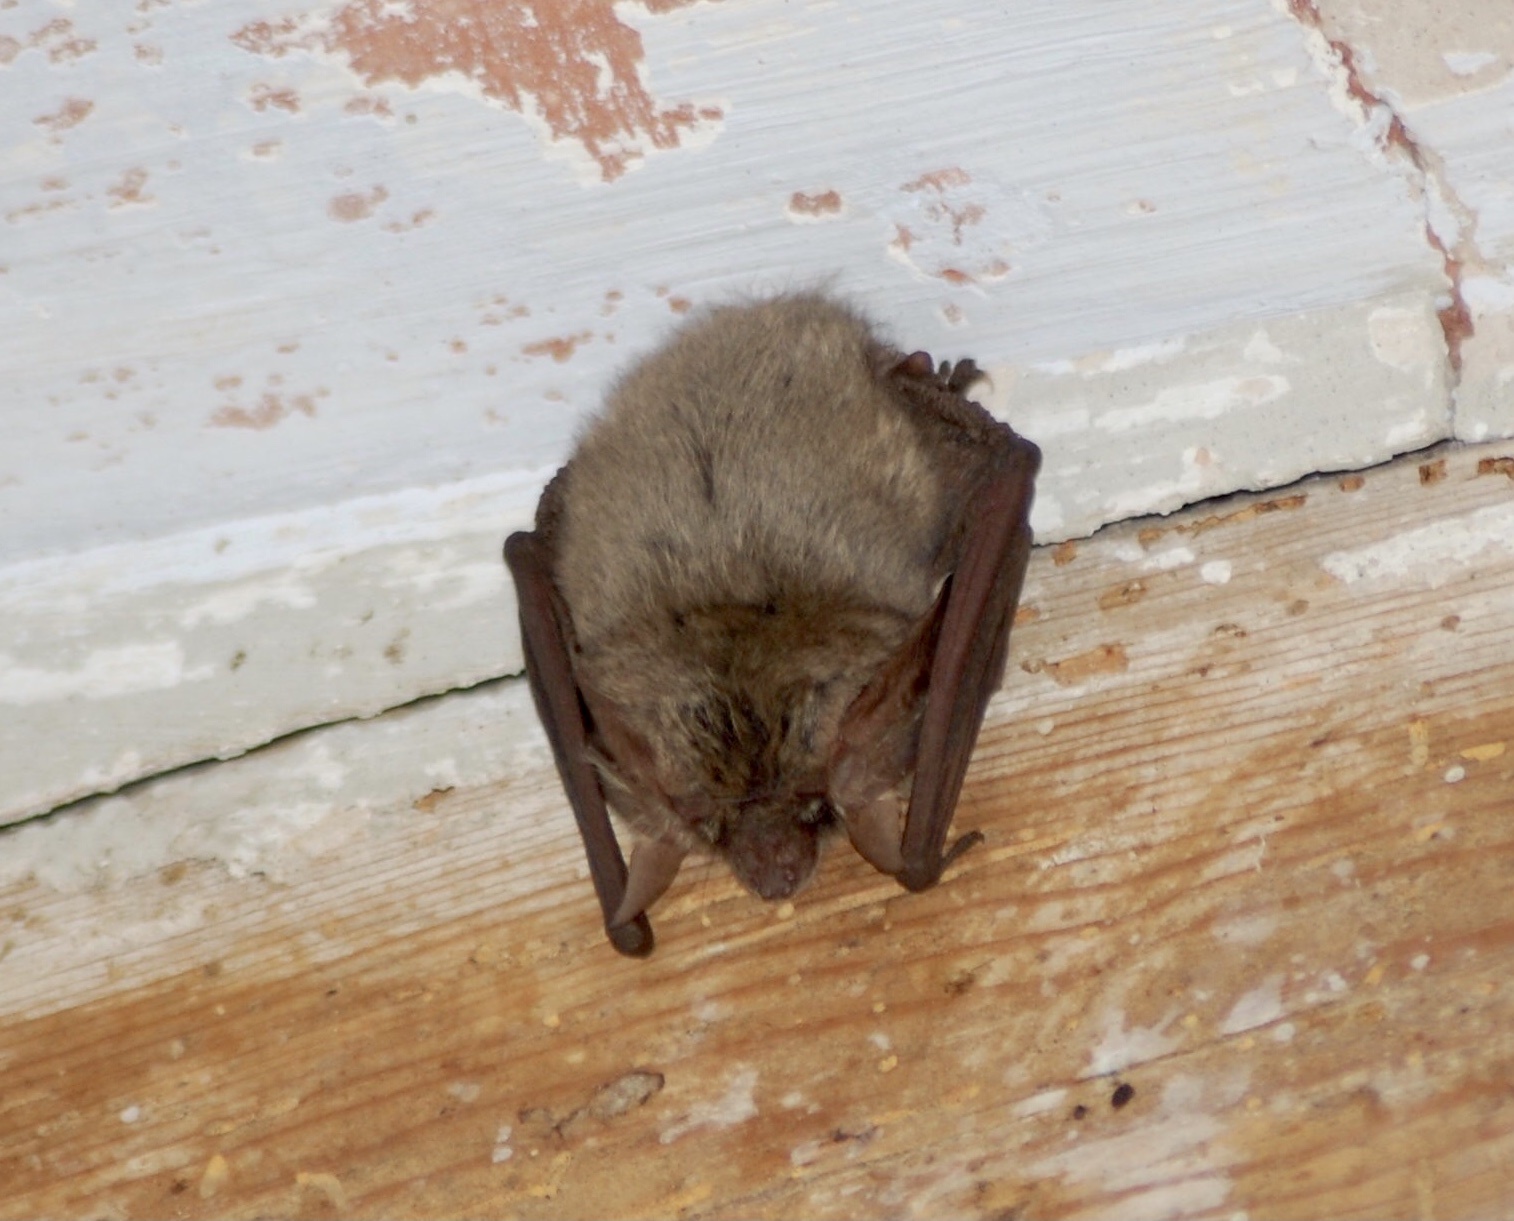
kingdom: Animalia
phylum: Chordata
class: Mammalia
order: Chiroptera
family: Vespertilionidae
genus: Plecotus
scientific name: Plecotus
